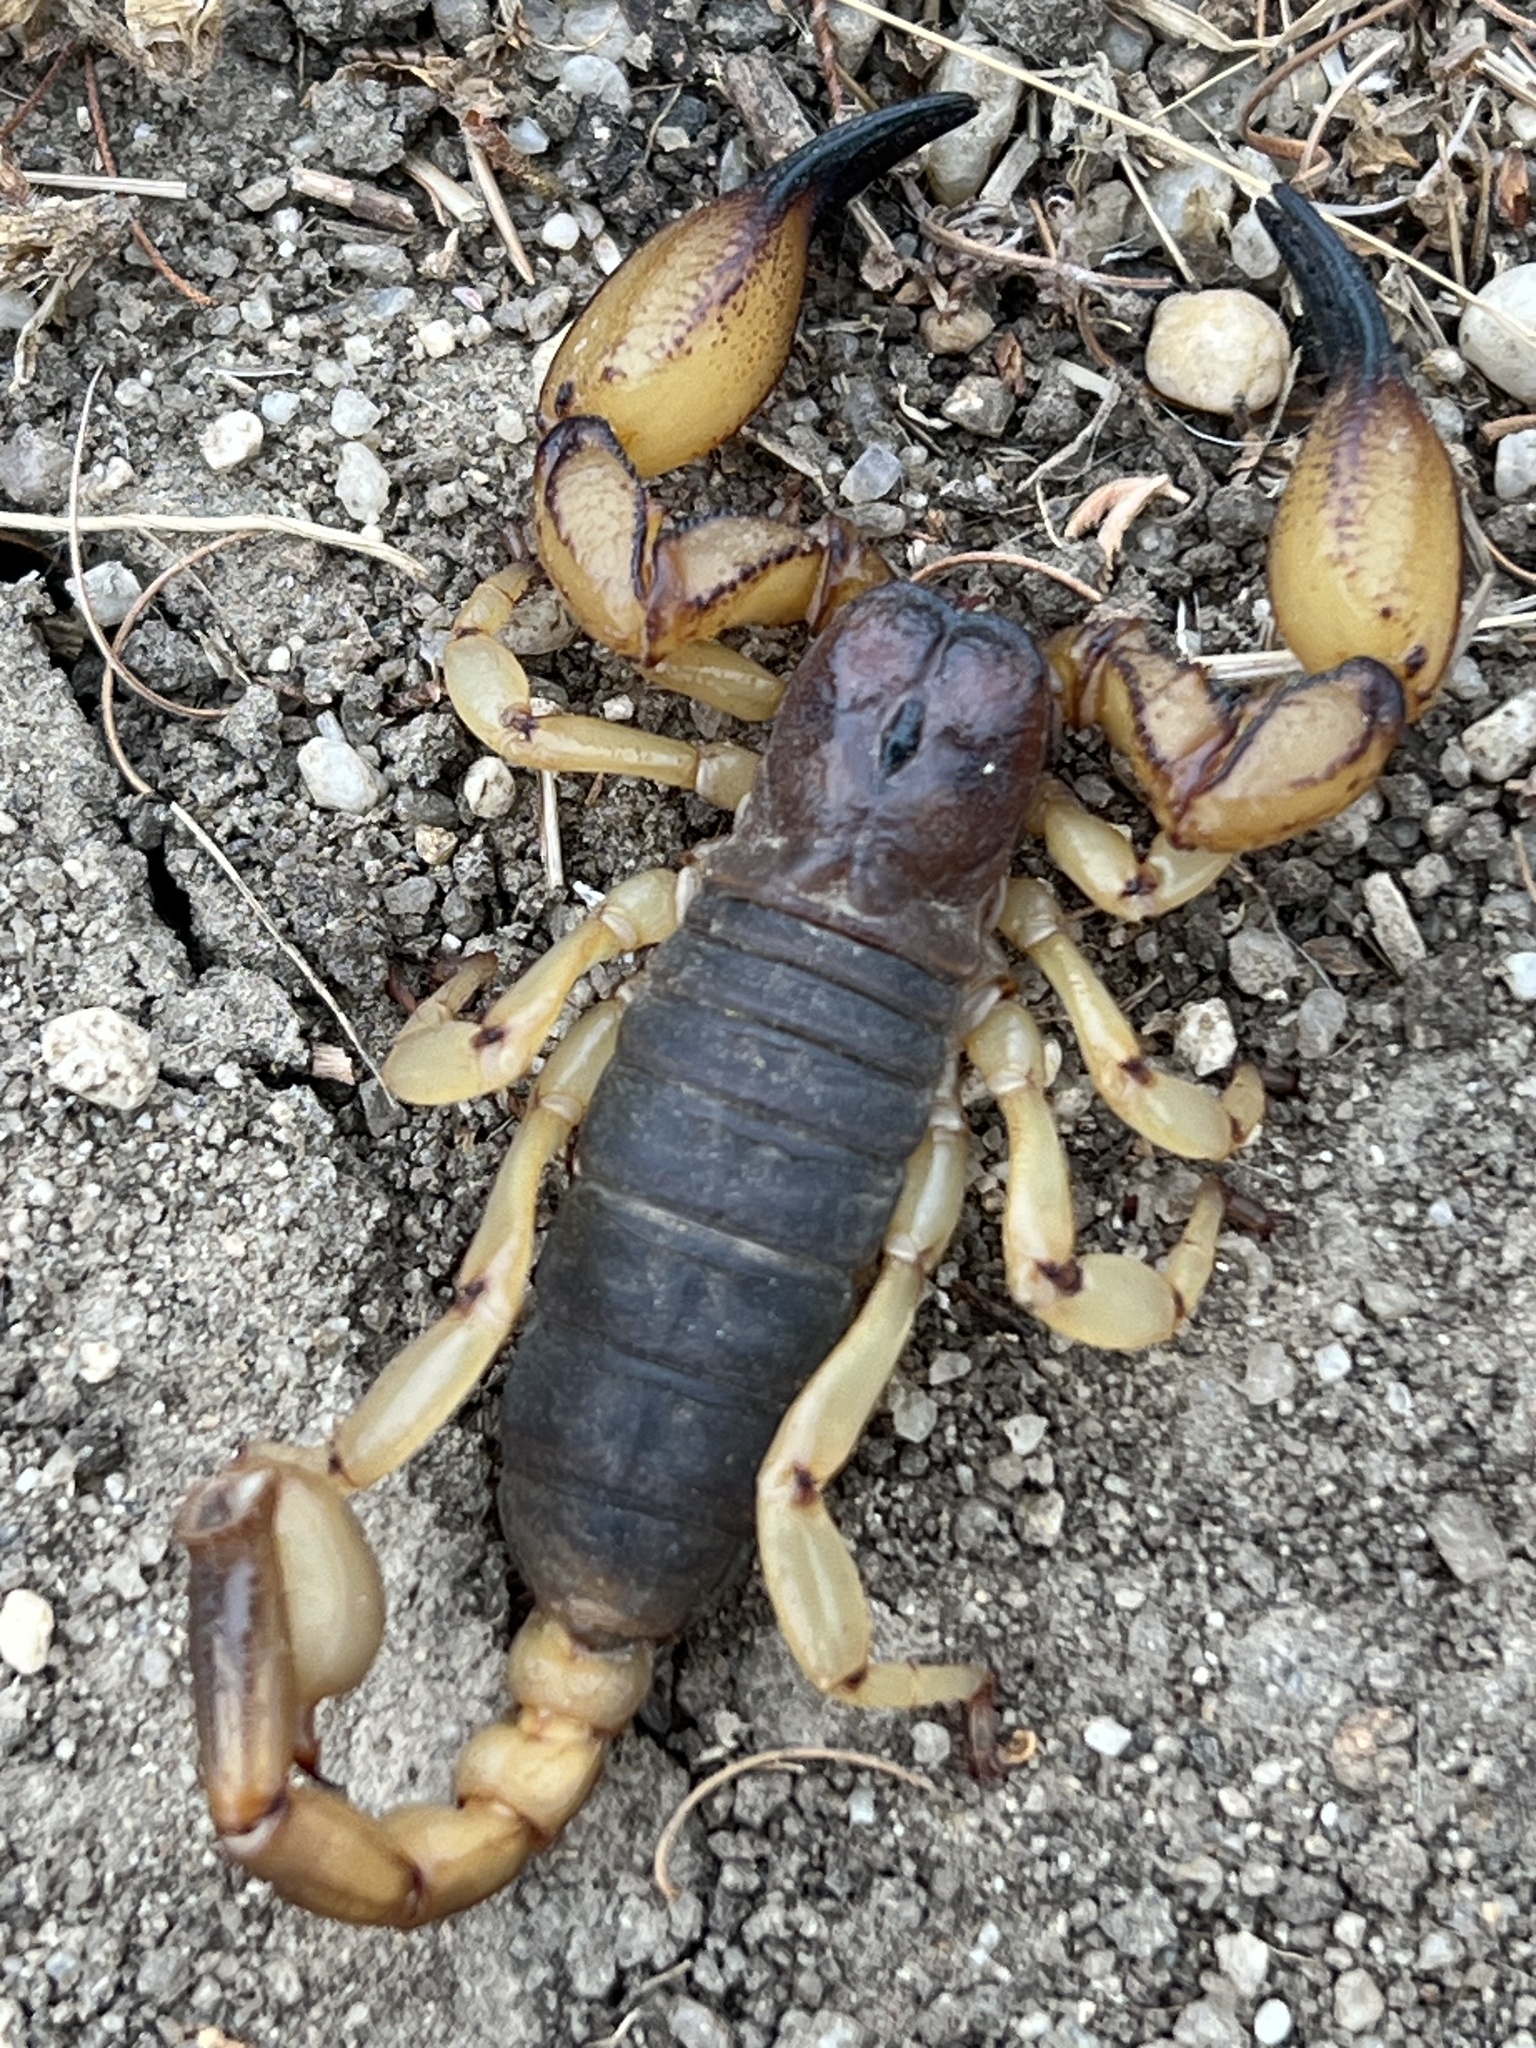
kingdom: Animalia
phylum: Arthropoda
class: Arachnida
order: Scorpiones
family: Chactidae
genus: Anuroctonus
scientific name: Anuroctonus pococki
